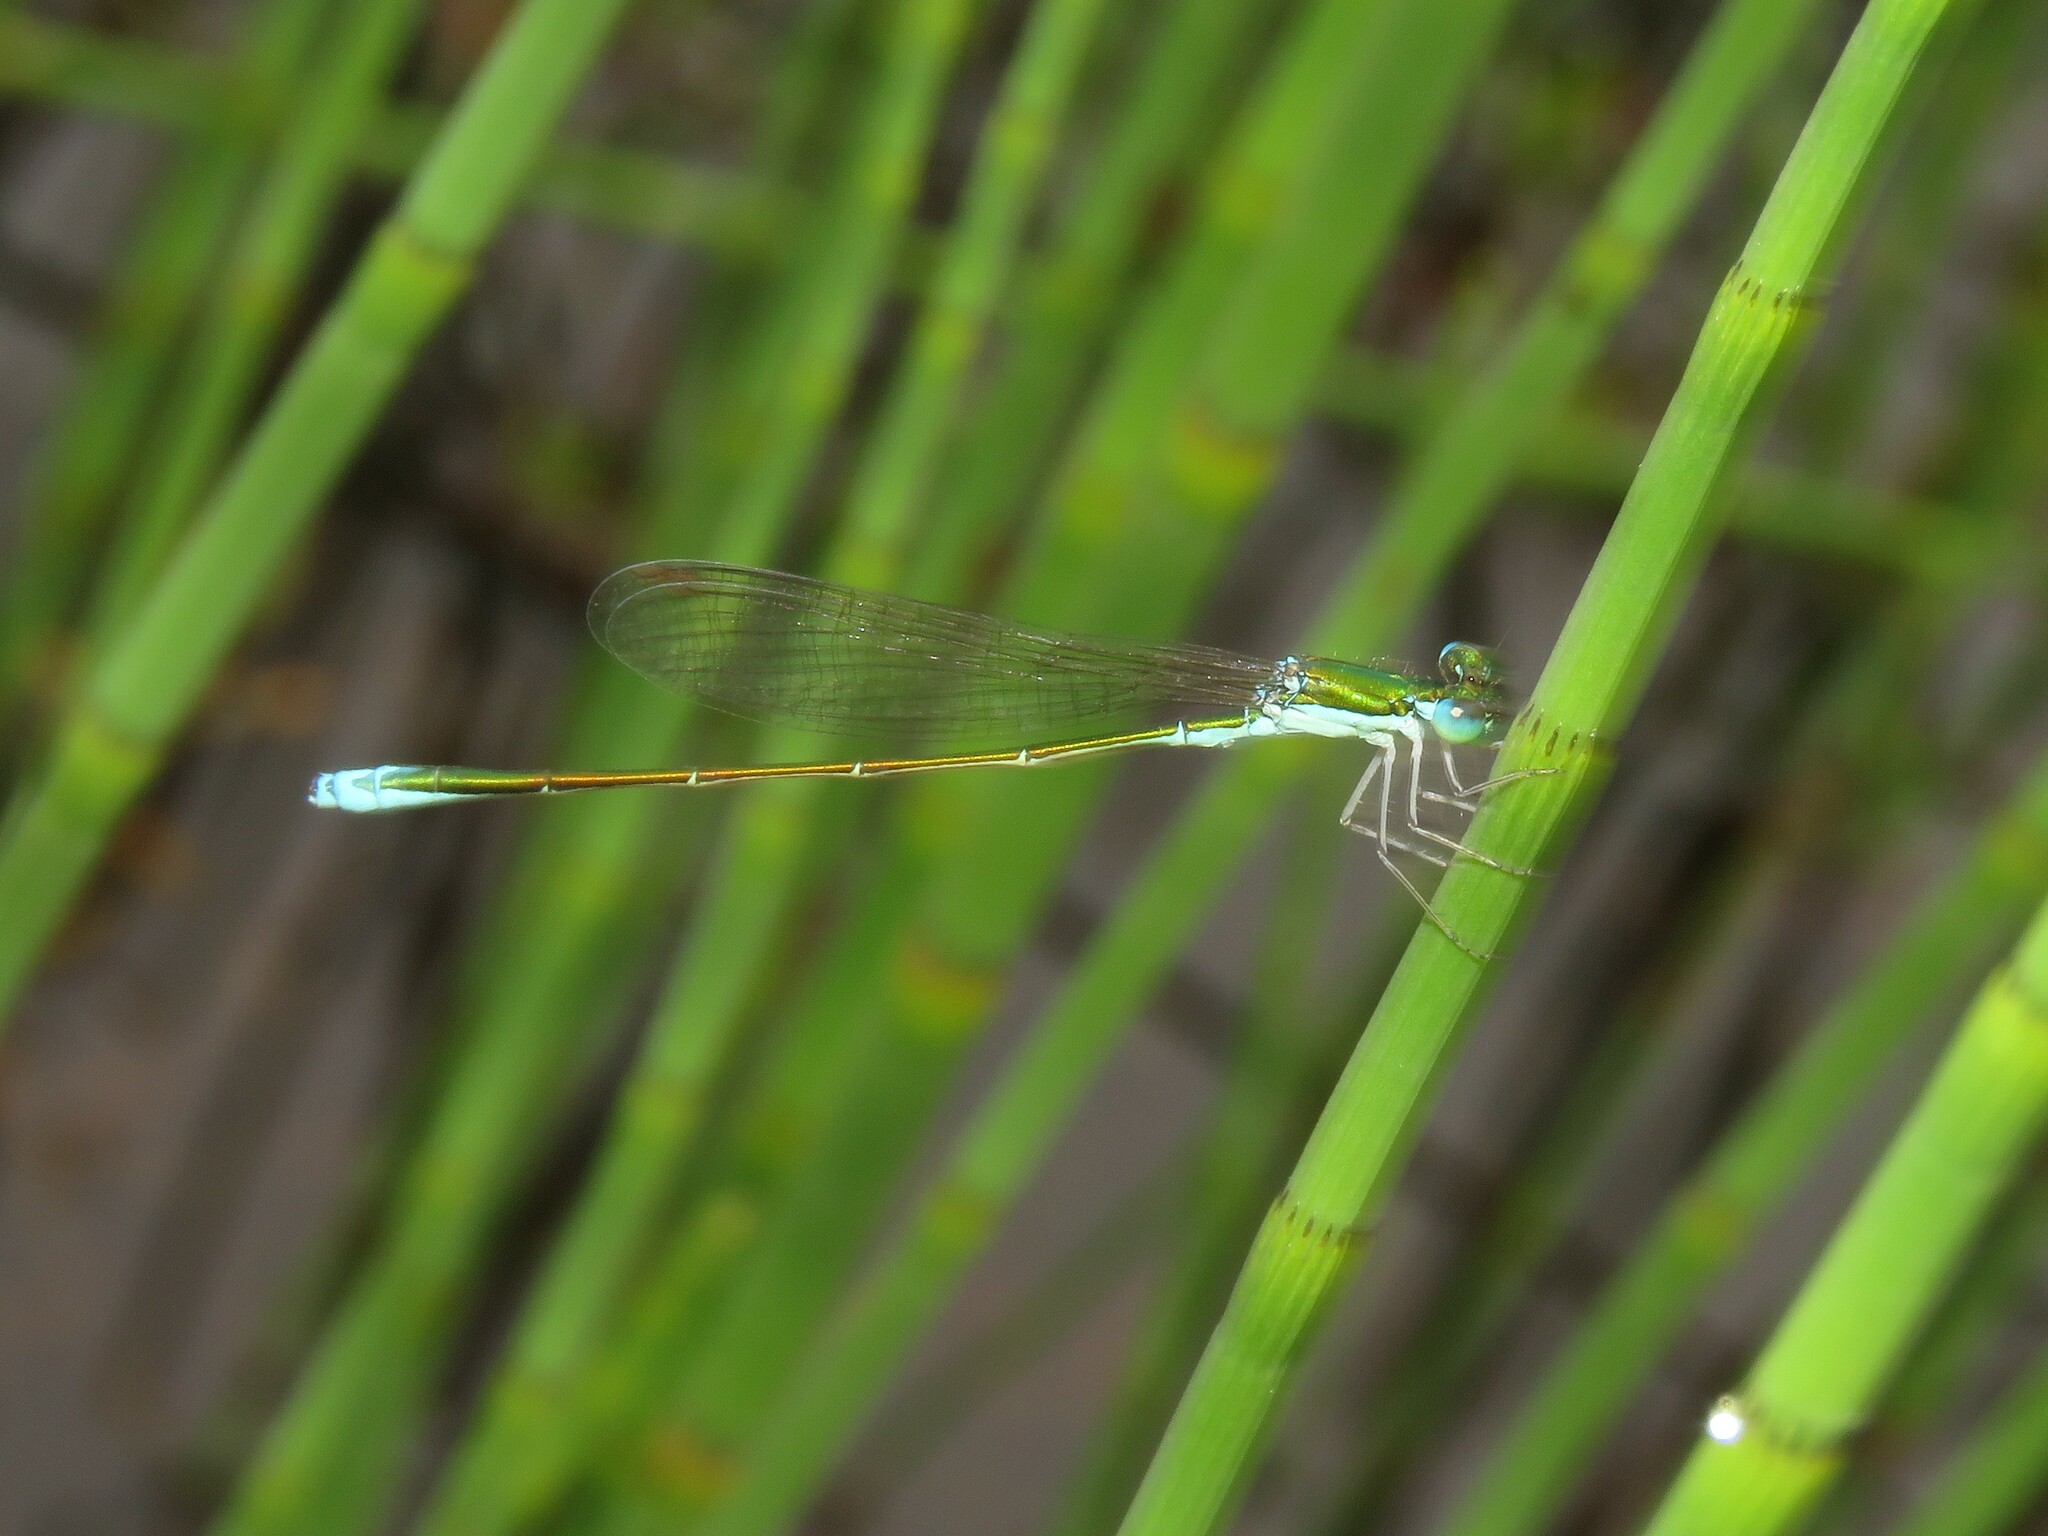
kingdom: Animalia
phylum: Arthropoda
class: Insecta
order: Odonata
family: Coenagrionidae
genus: Nehalennia
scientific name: Nehalennia irene
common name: Sedge sprite
